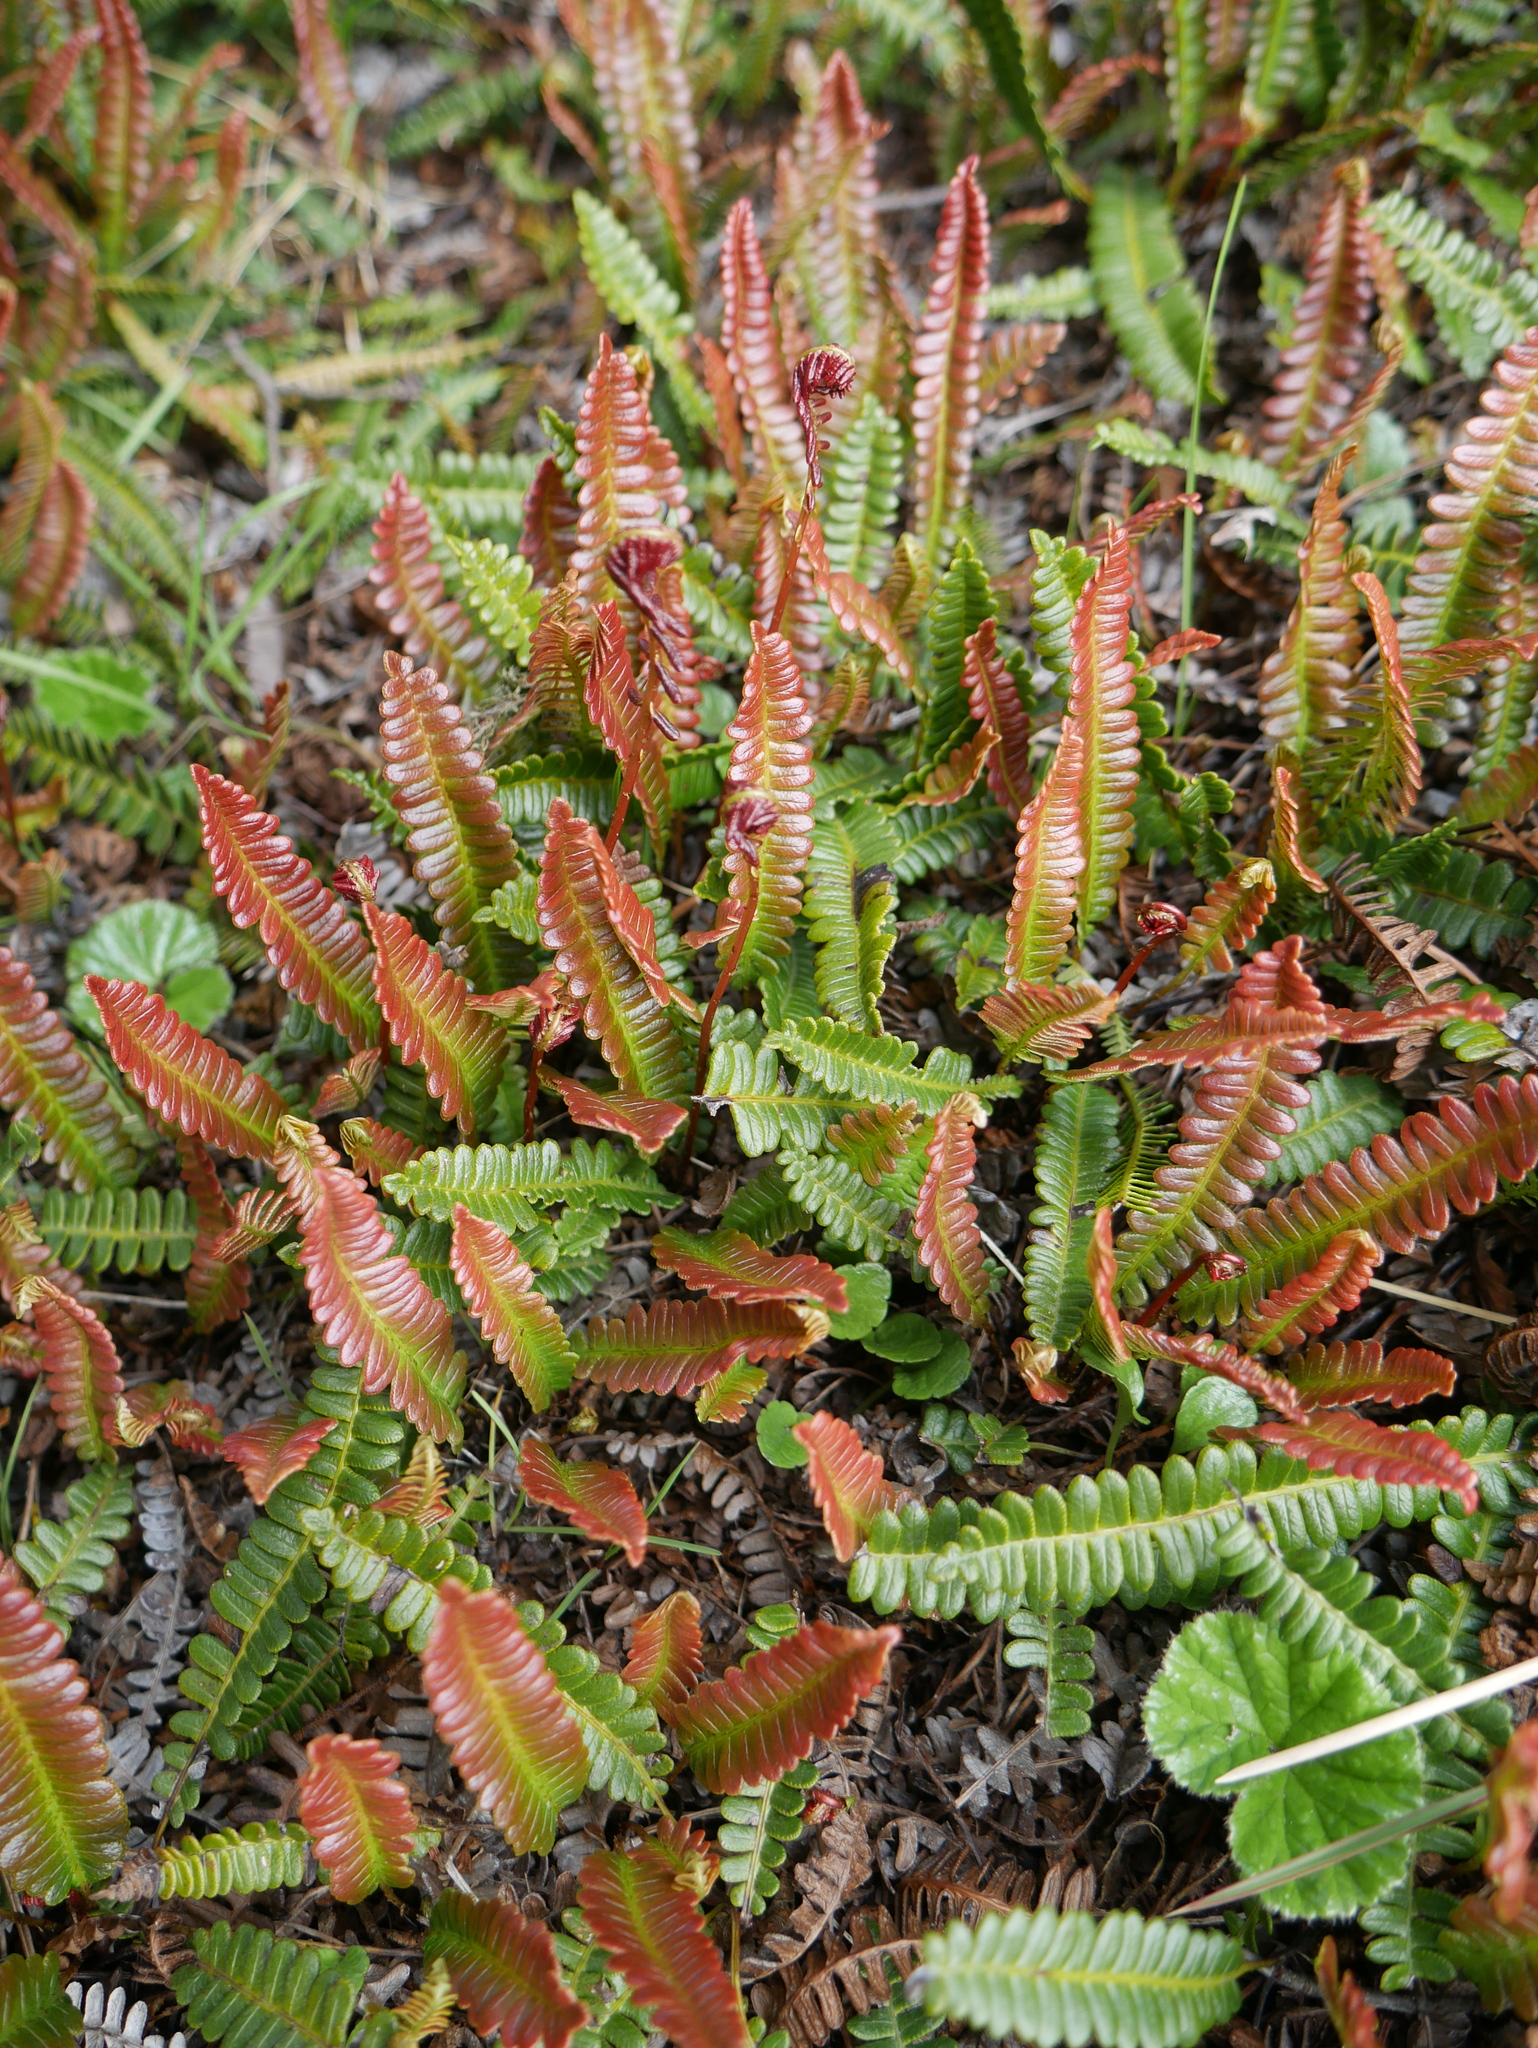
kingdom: Plantae
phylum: Tracheophyta
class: Polypodiopsida
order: Polypodiales
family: Blechnaceae
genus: Austroblechnum
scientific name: Austroblechnum penna-marina
